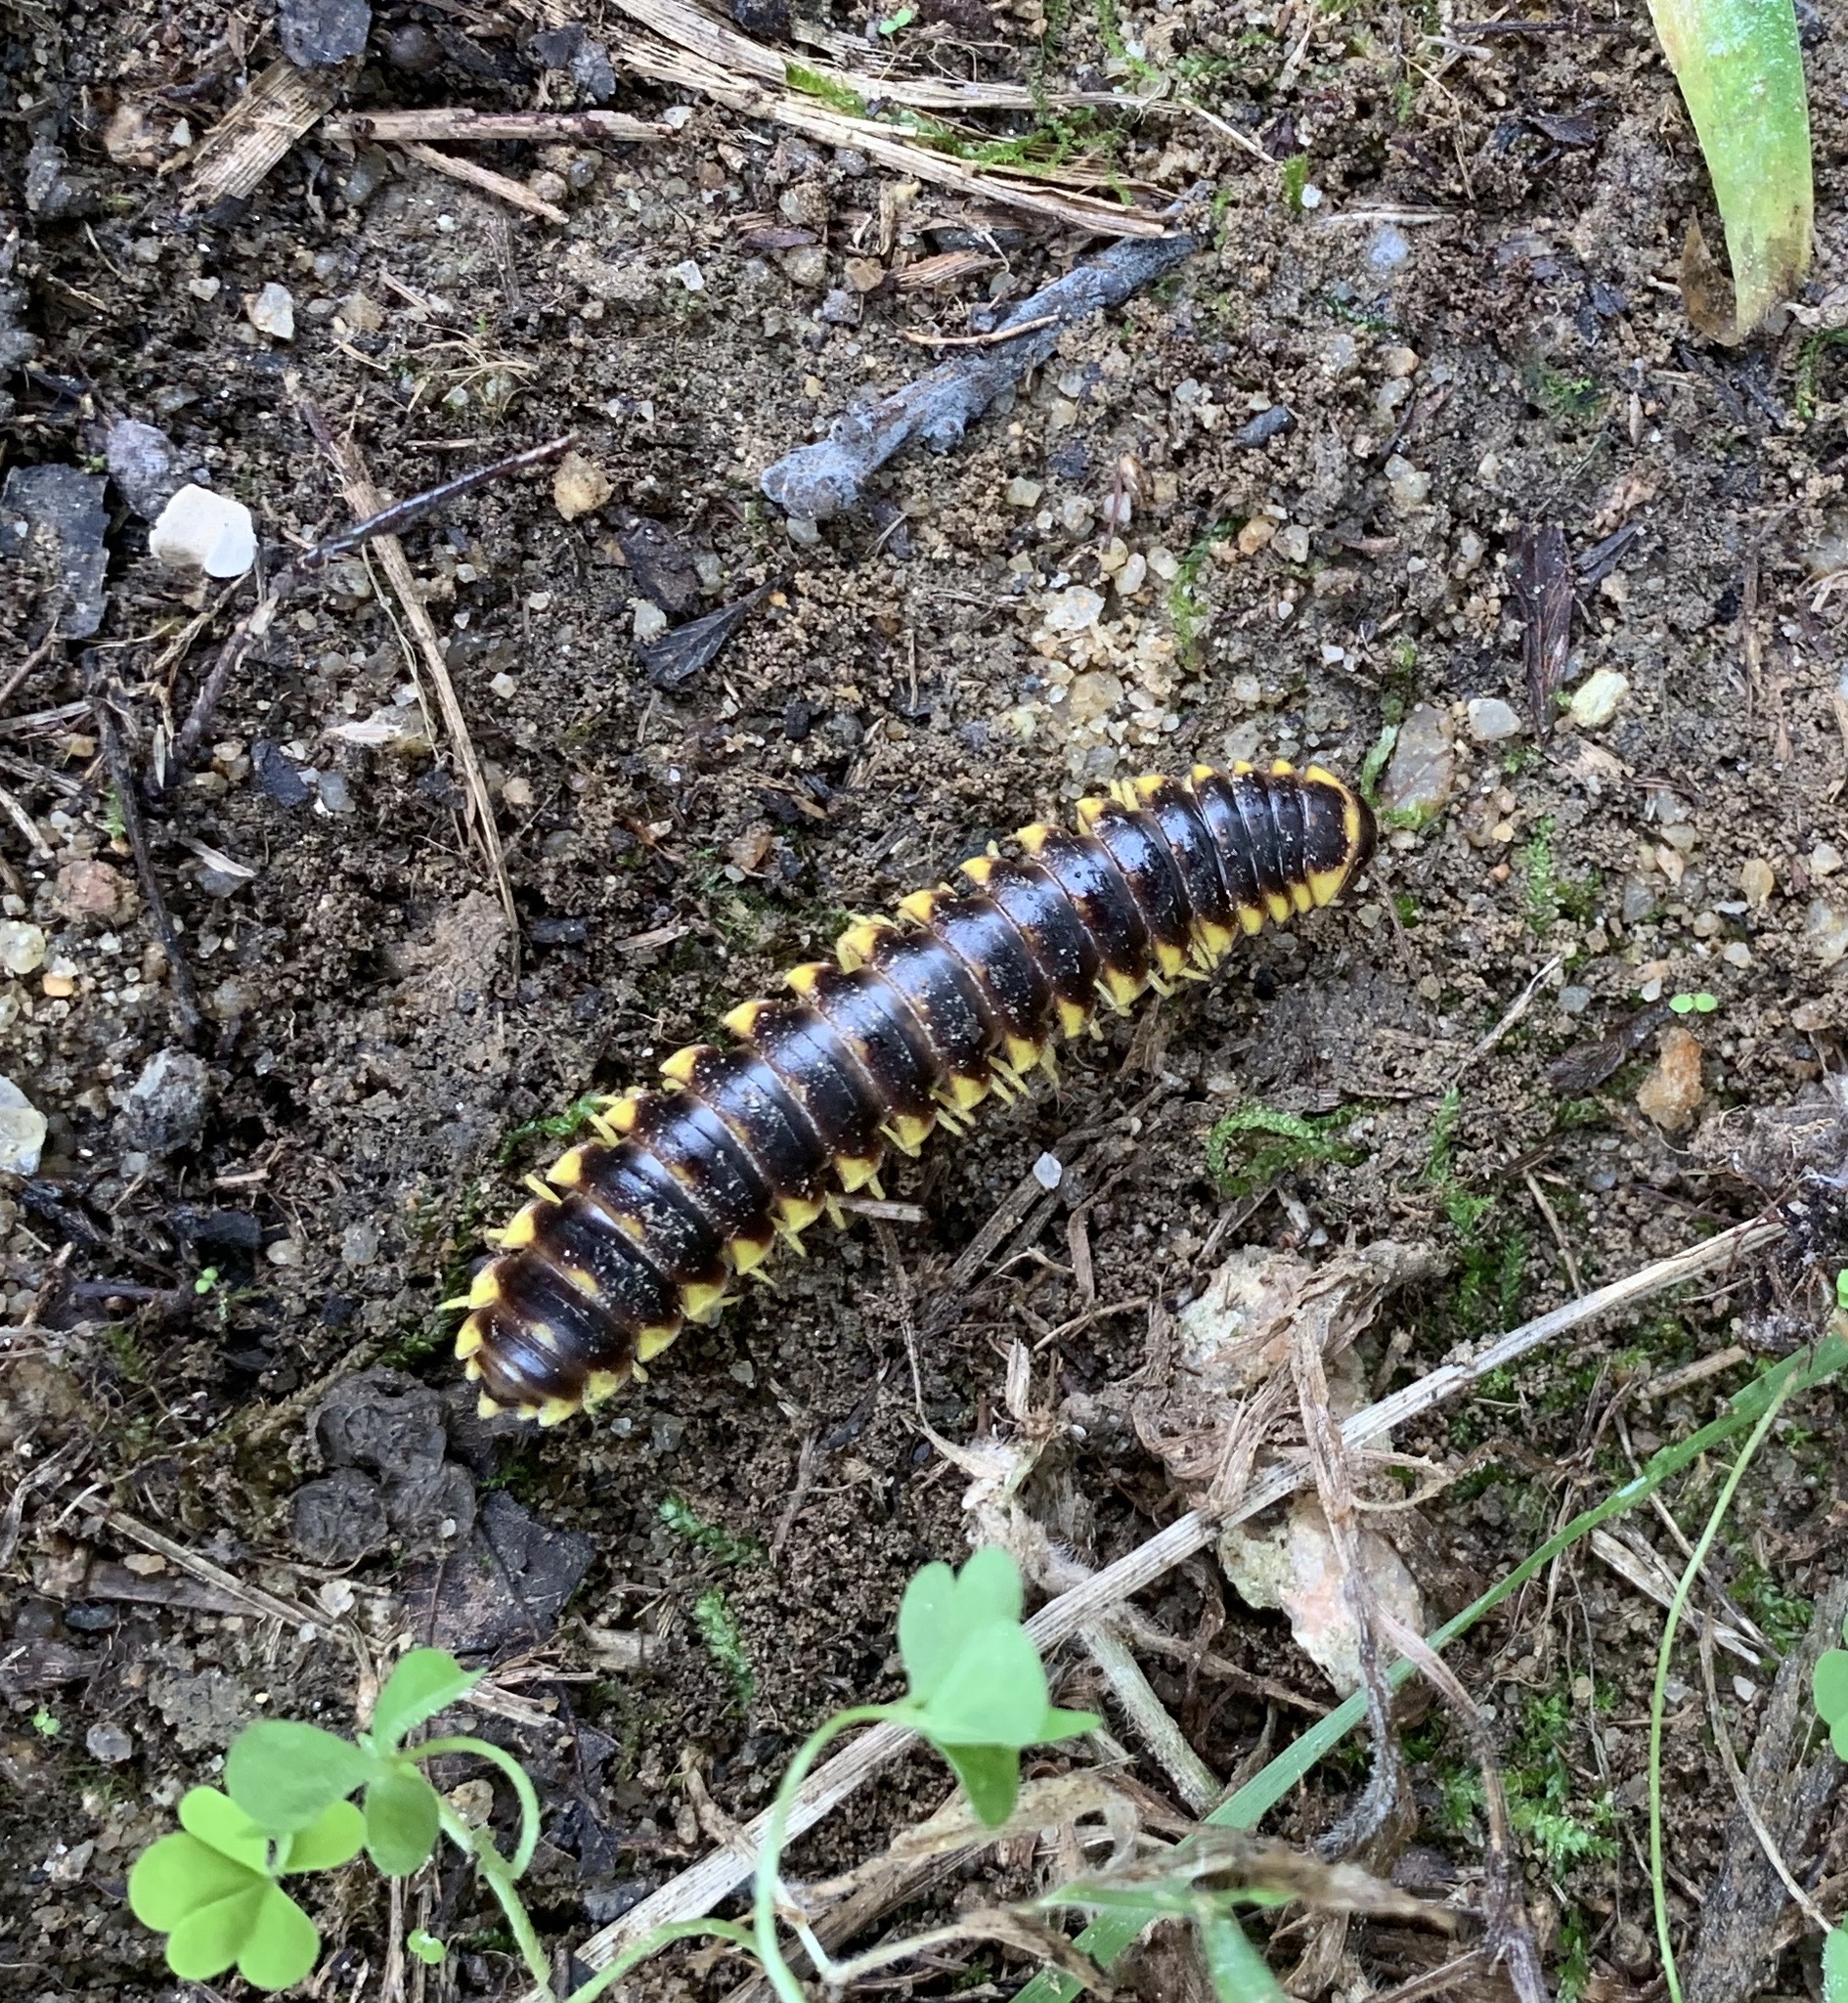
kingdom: Animalia
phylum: Arthropoda
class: Diplopoda
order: Polydesmida
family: Xystodesmidae
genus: Apheloria
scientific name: Apheloria tigana
